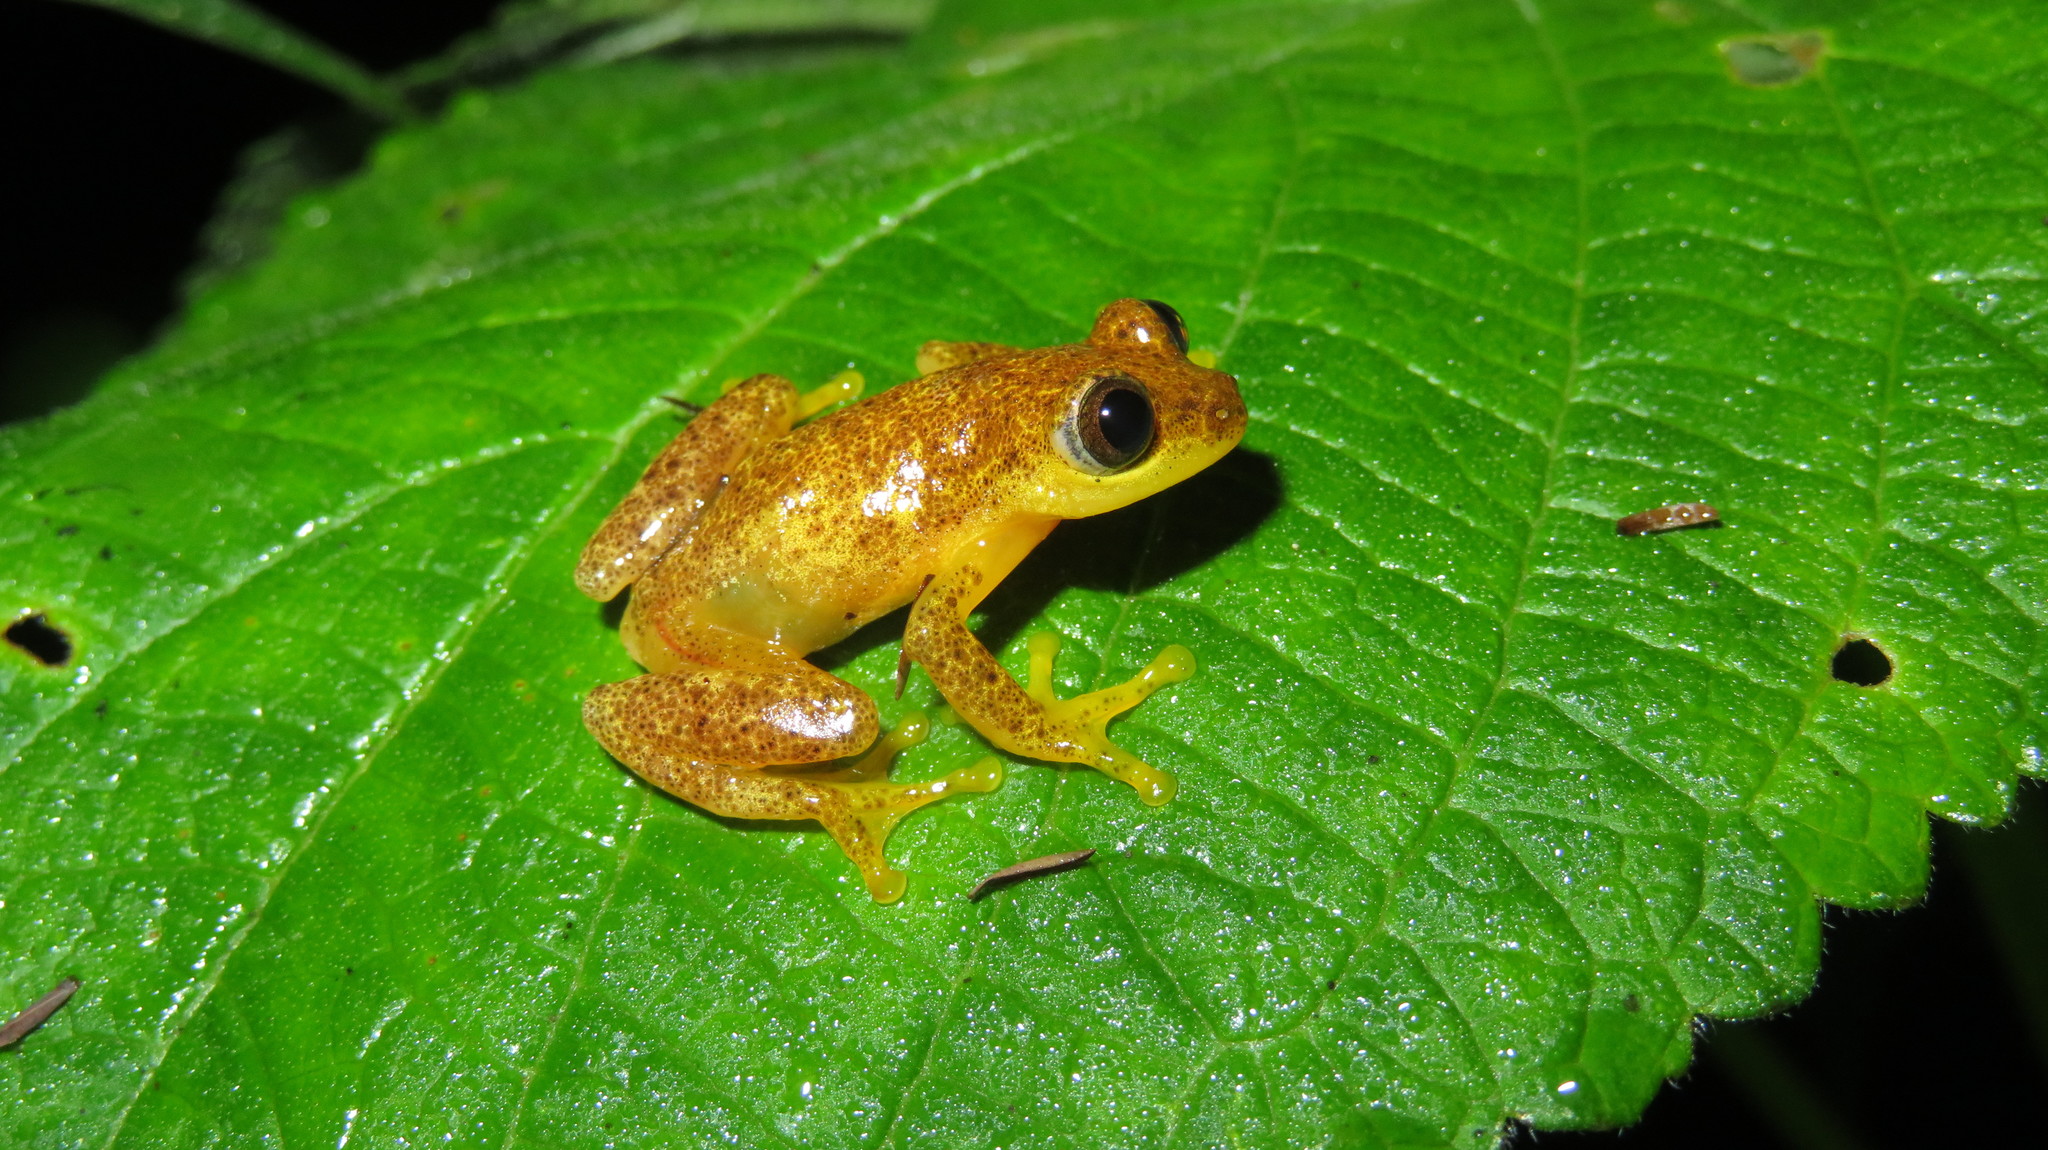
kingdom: Animalia
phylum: Chordata
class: Amphibia
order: Anura
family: Hyperoliidae
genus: Afrixalus
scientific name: Afrixalus dorsimaculatus
